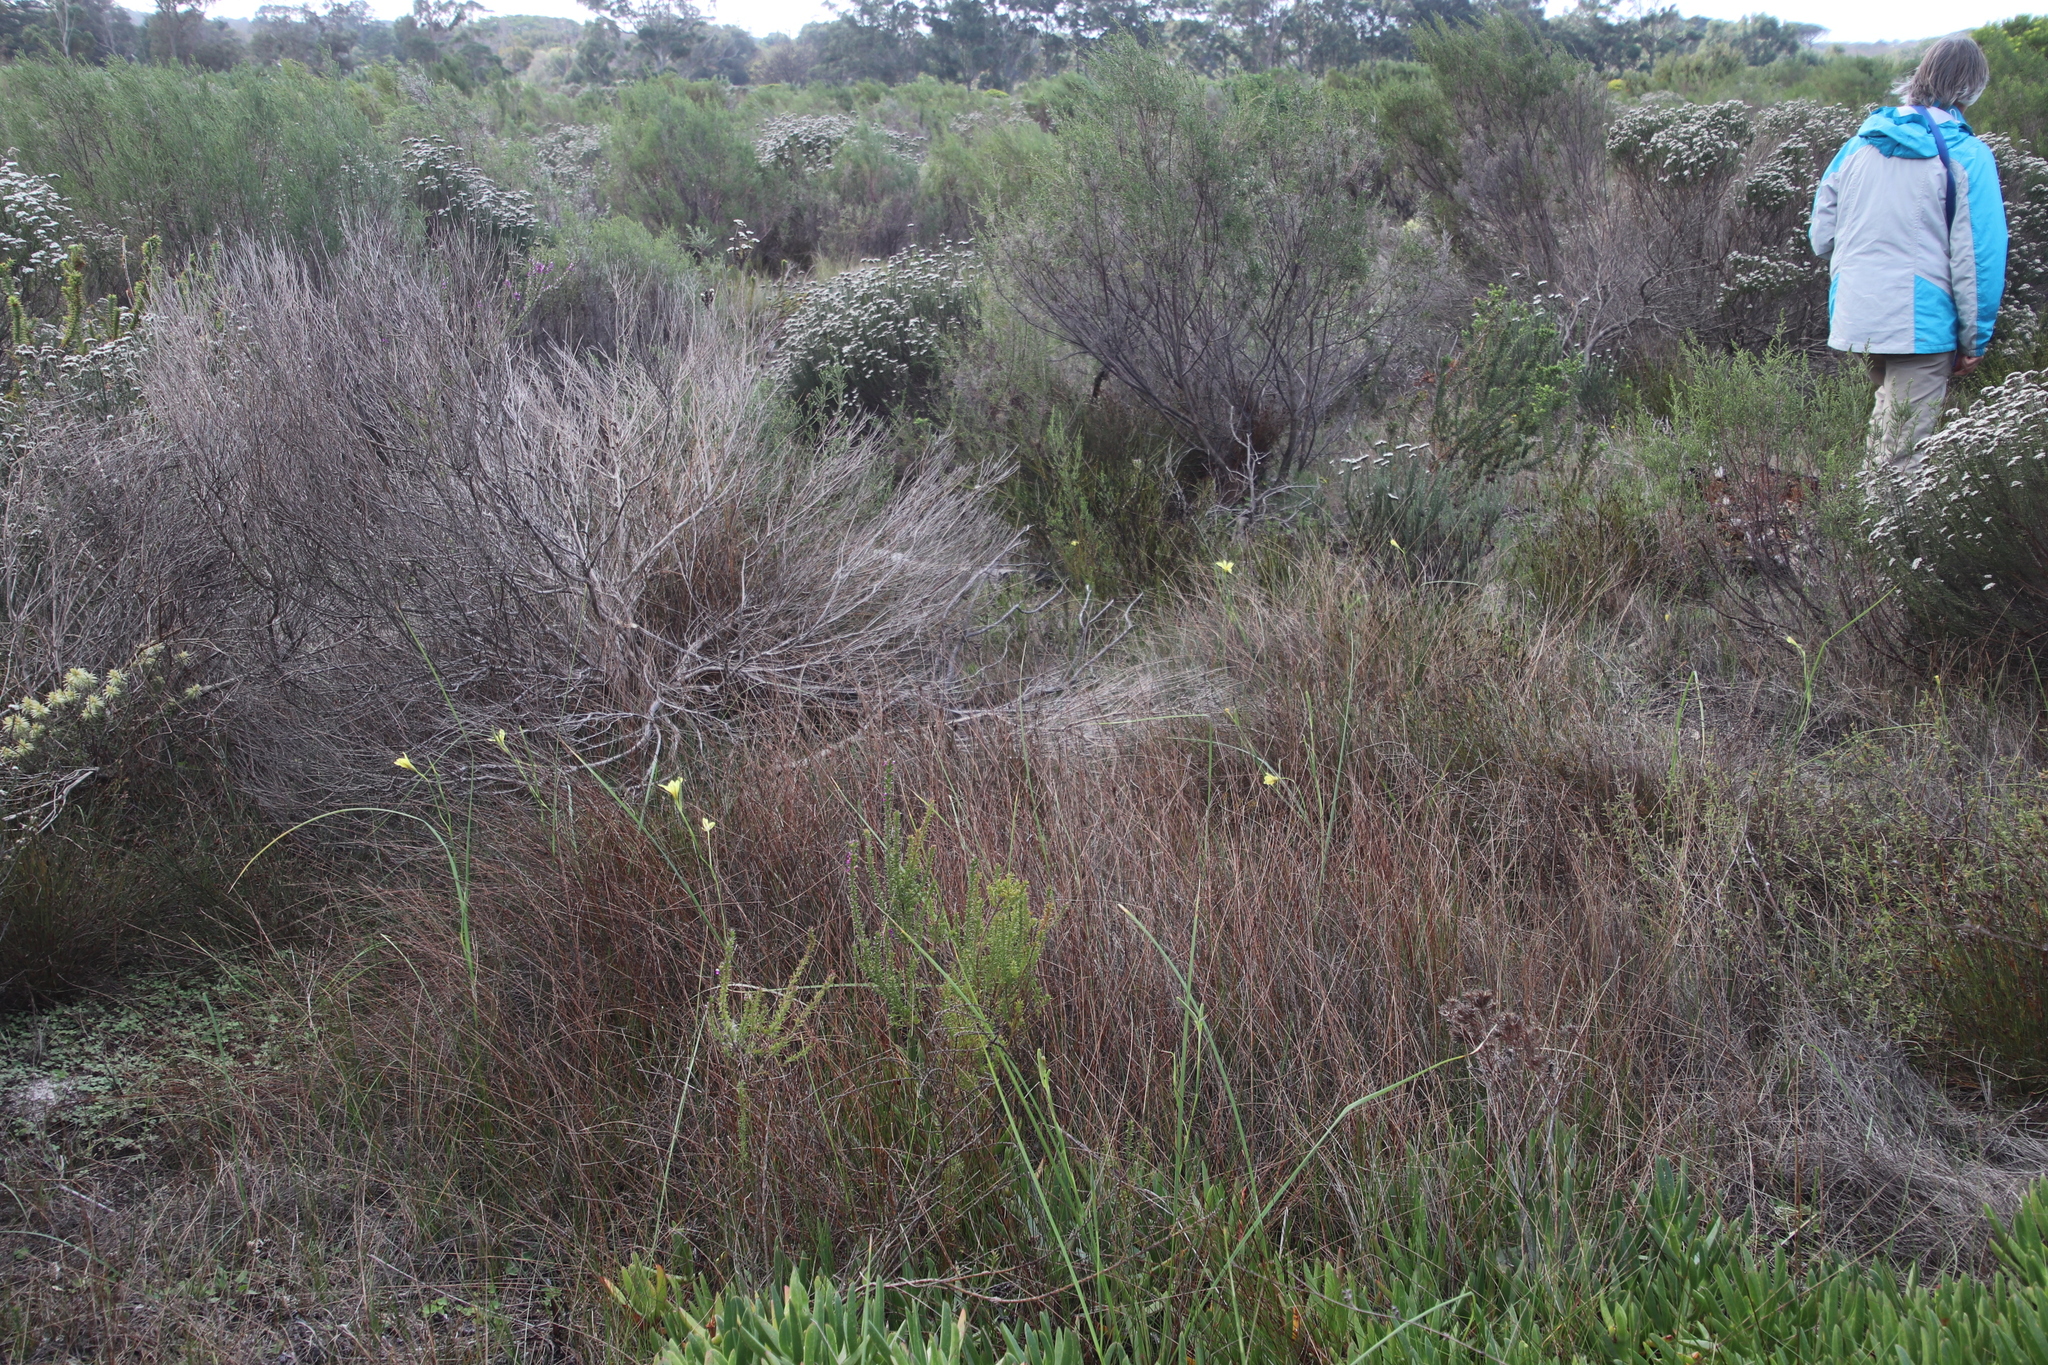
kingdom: Plantae
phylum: Tracheophyta
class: Liliopsida
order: Asparagales
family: Iridaceae
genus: Moraea
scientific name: Moraea collina
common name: Cape-tulip
